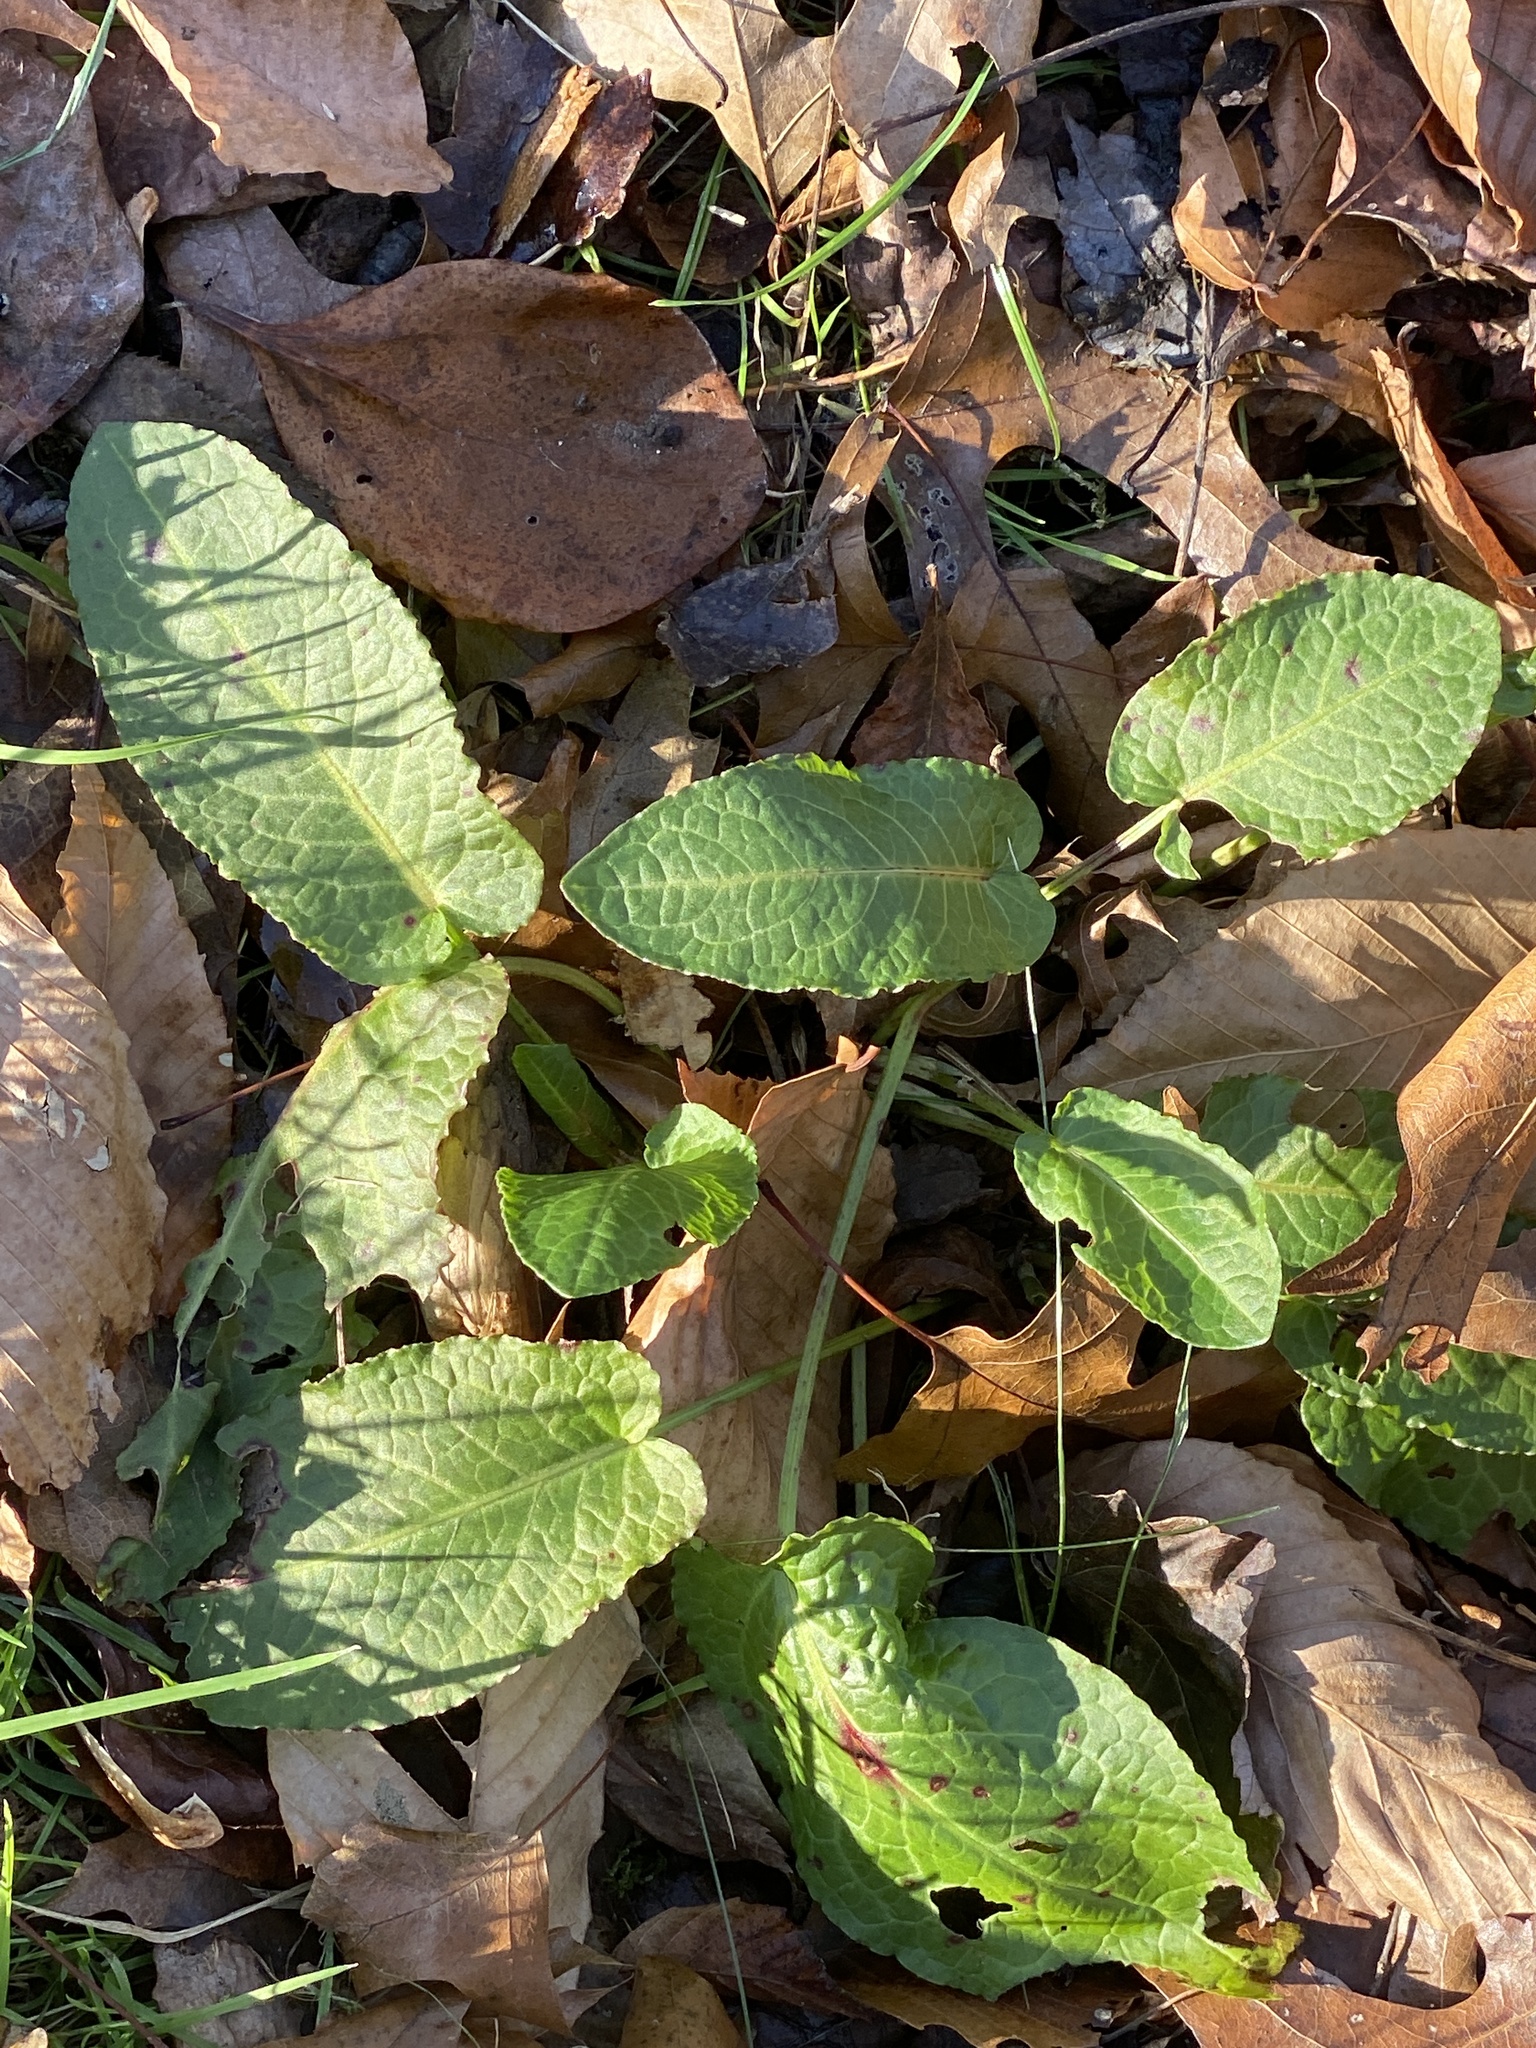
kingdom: Plantae
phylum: Tracheophyta
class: Magnoliopsida
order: Caryophyllales
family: Polygonaceae
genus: Rumex
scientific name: Rumex obtusifolius
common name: Bitter dock
